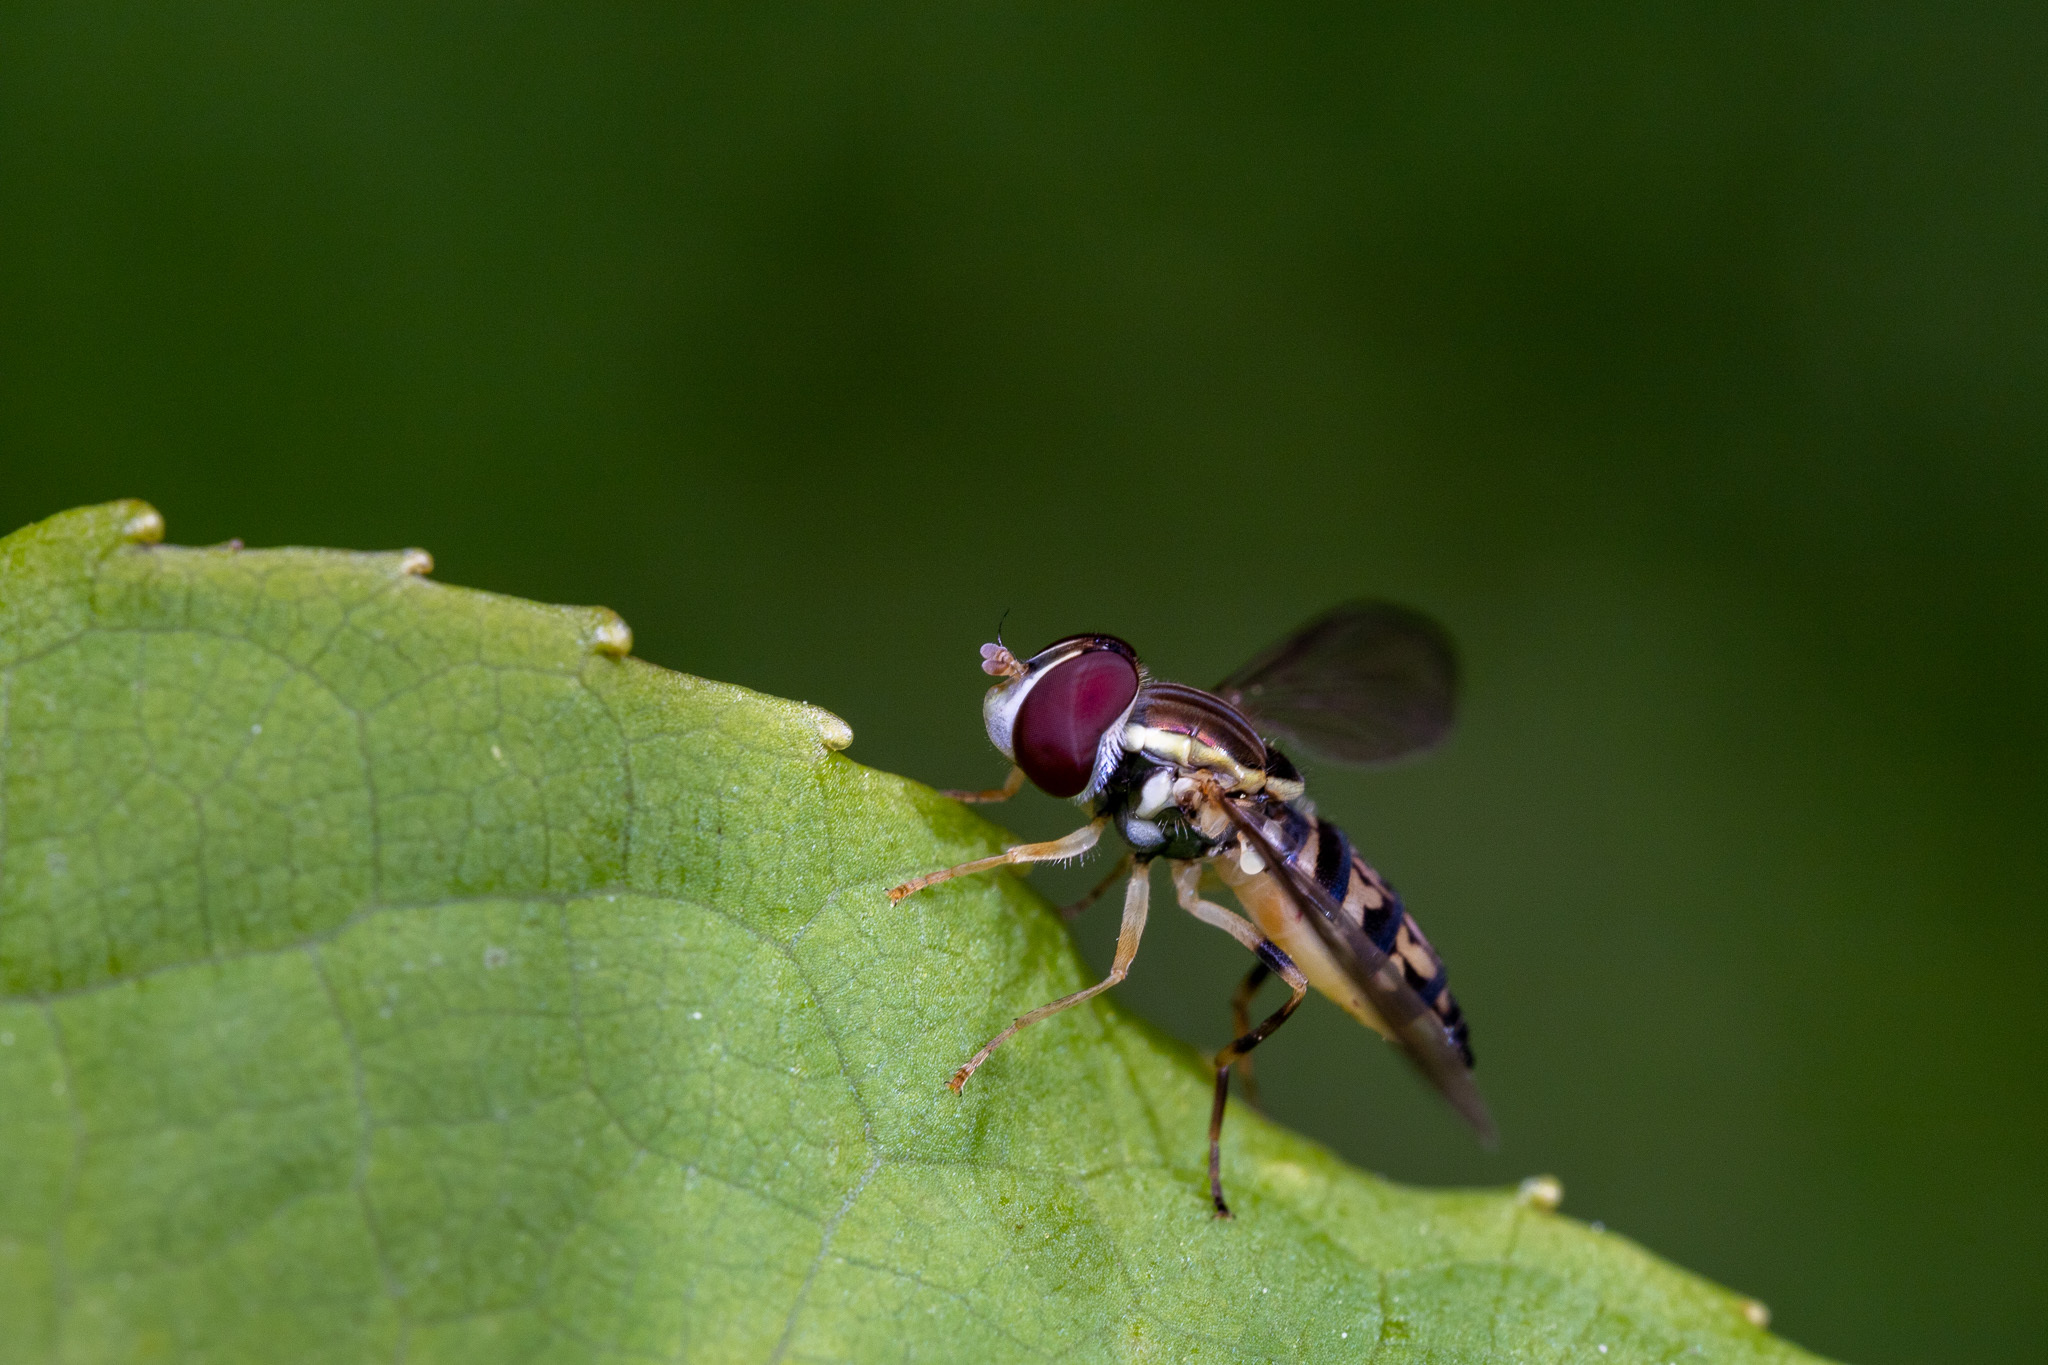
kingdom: Animalia
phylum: Arthropoda
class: Insecta
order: Diptera
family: Syrphidae
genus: Toxomerus
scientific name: Toxomerus geminatus
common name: Eastern calligrapher
